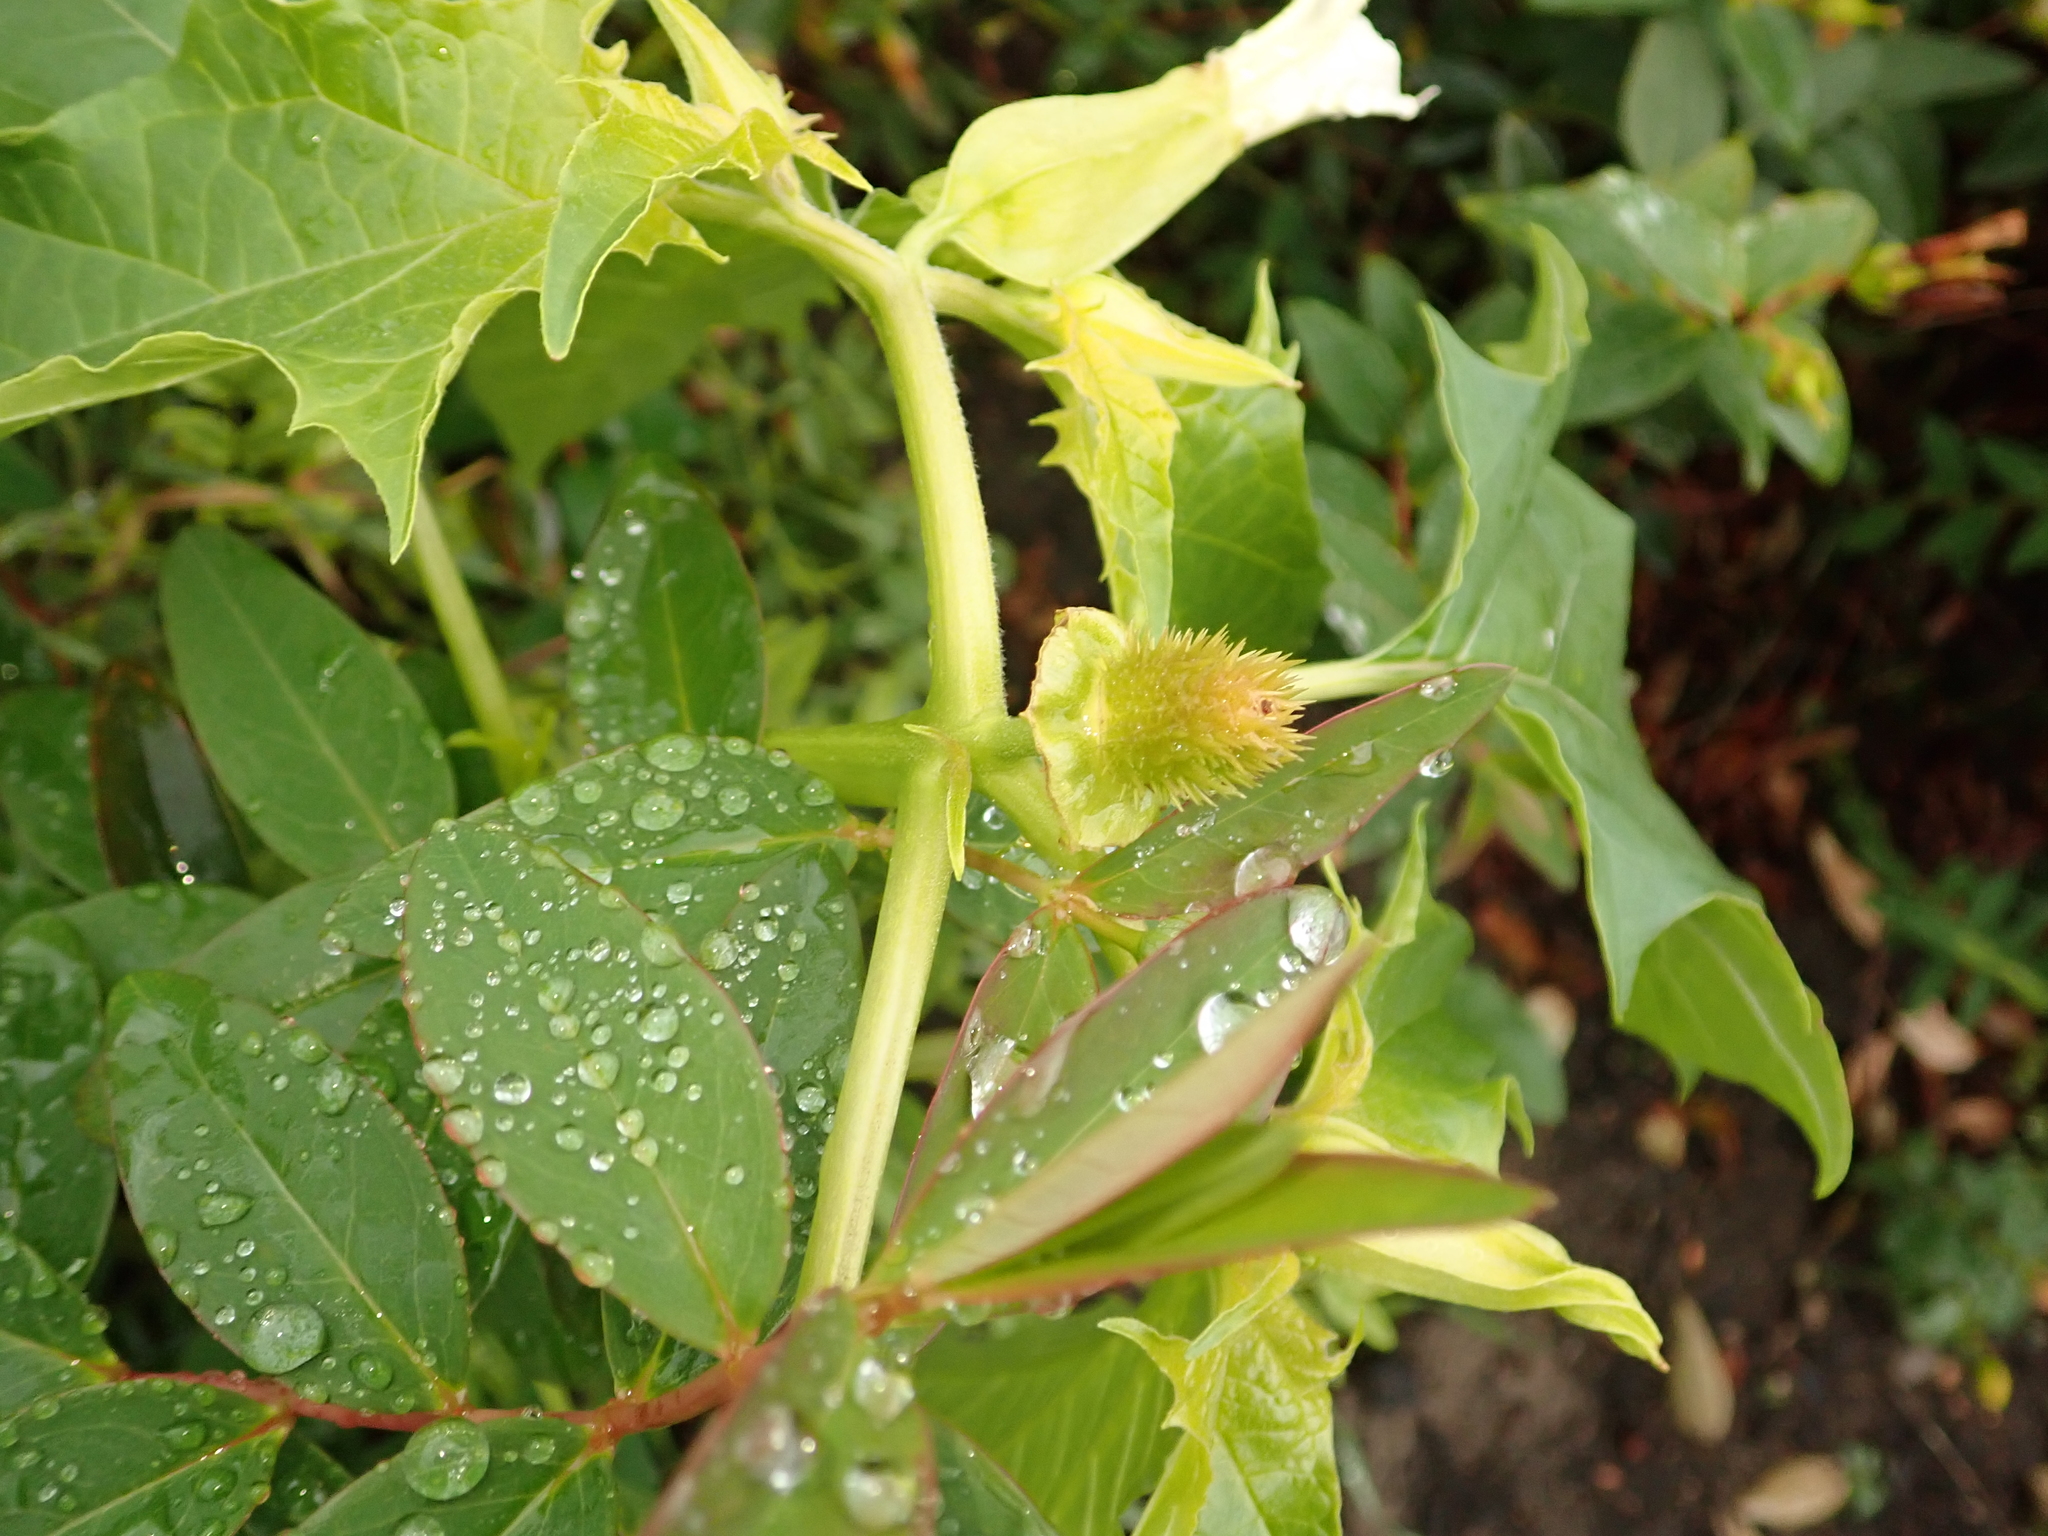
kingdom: Plantae
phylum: Tracheophyta
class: Magnoliopsida
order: Solanales
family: Solanaceae
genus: Datura
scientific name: Datura stramonium
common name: Thorn-apple
